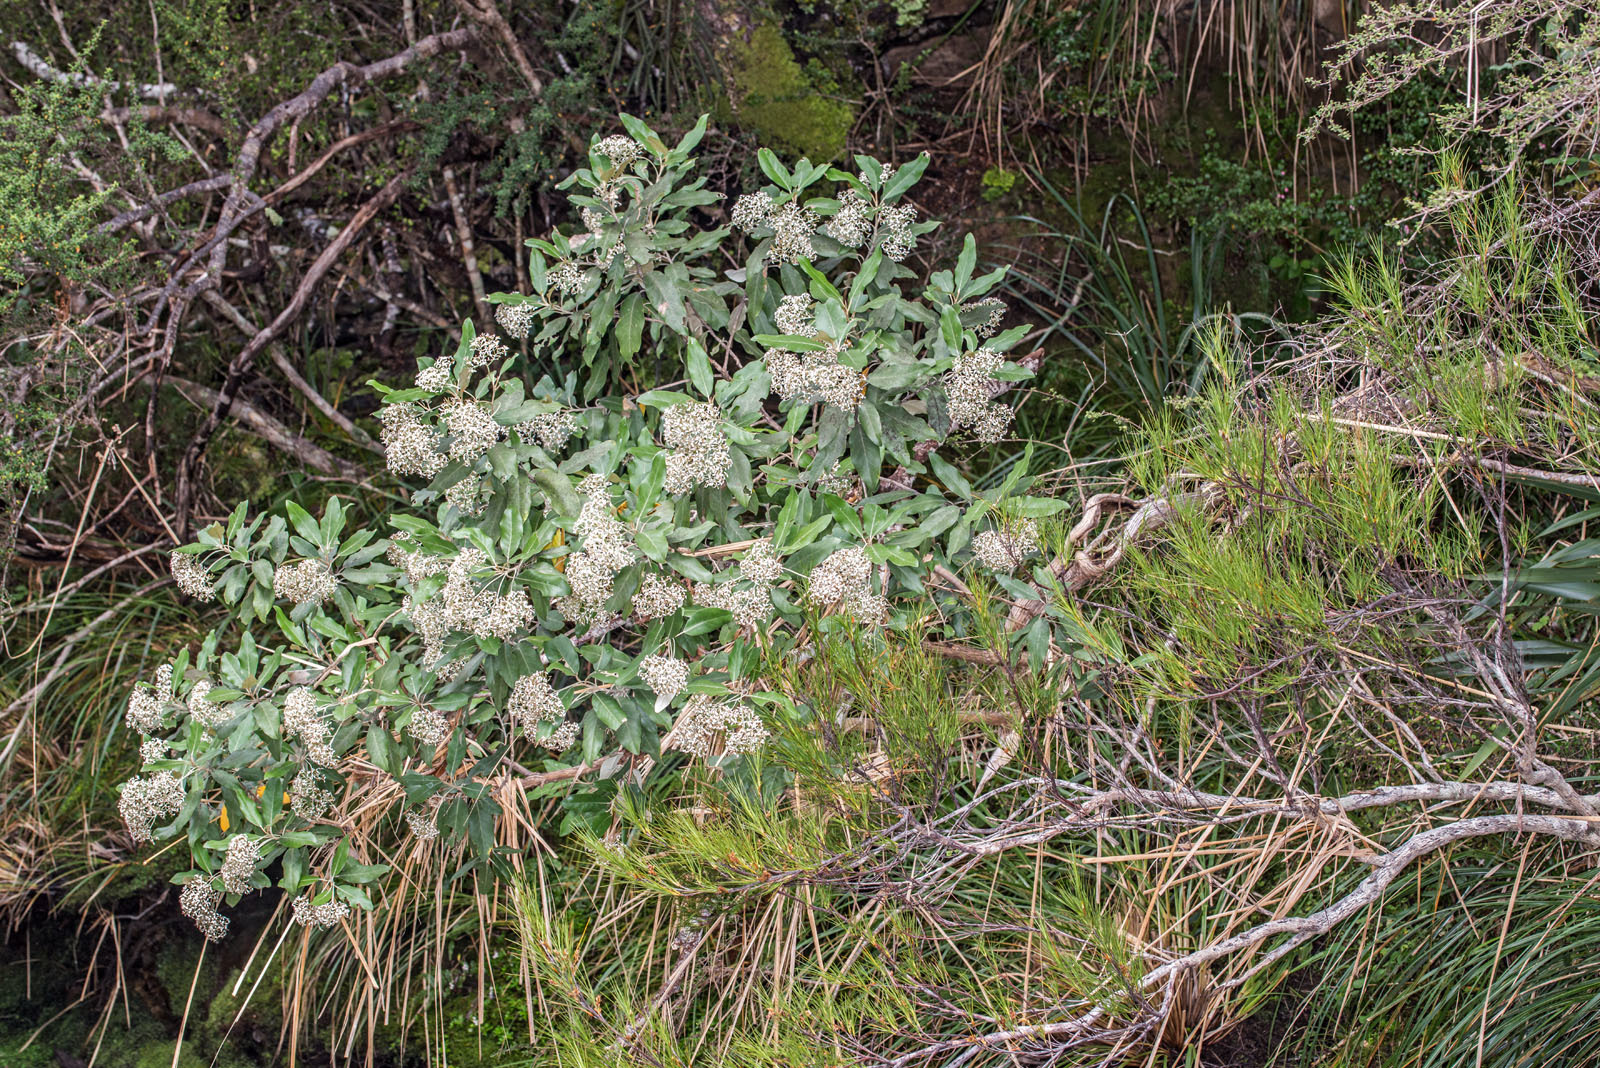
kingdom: Plantae
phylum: Tracheophyta
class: Magnoliopsida
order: Asterales
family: Asteraceae
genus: Olearia
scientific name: Olearia avicenniifolia
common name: Mangrove-leaf daisybush
